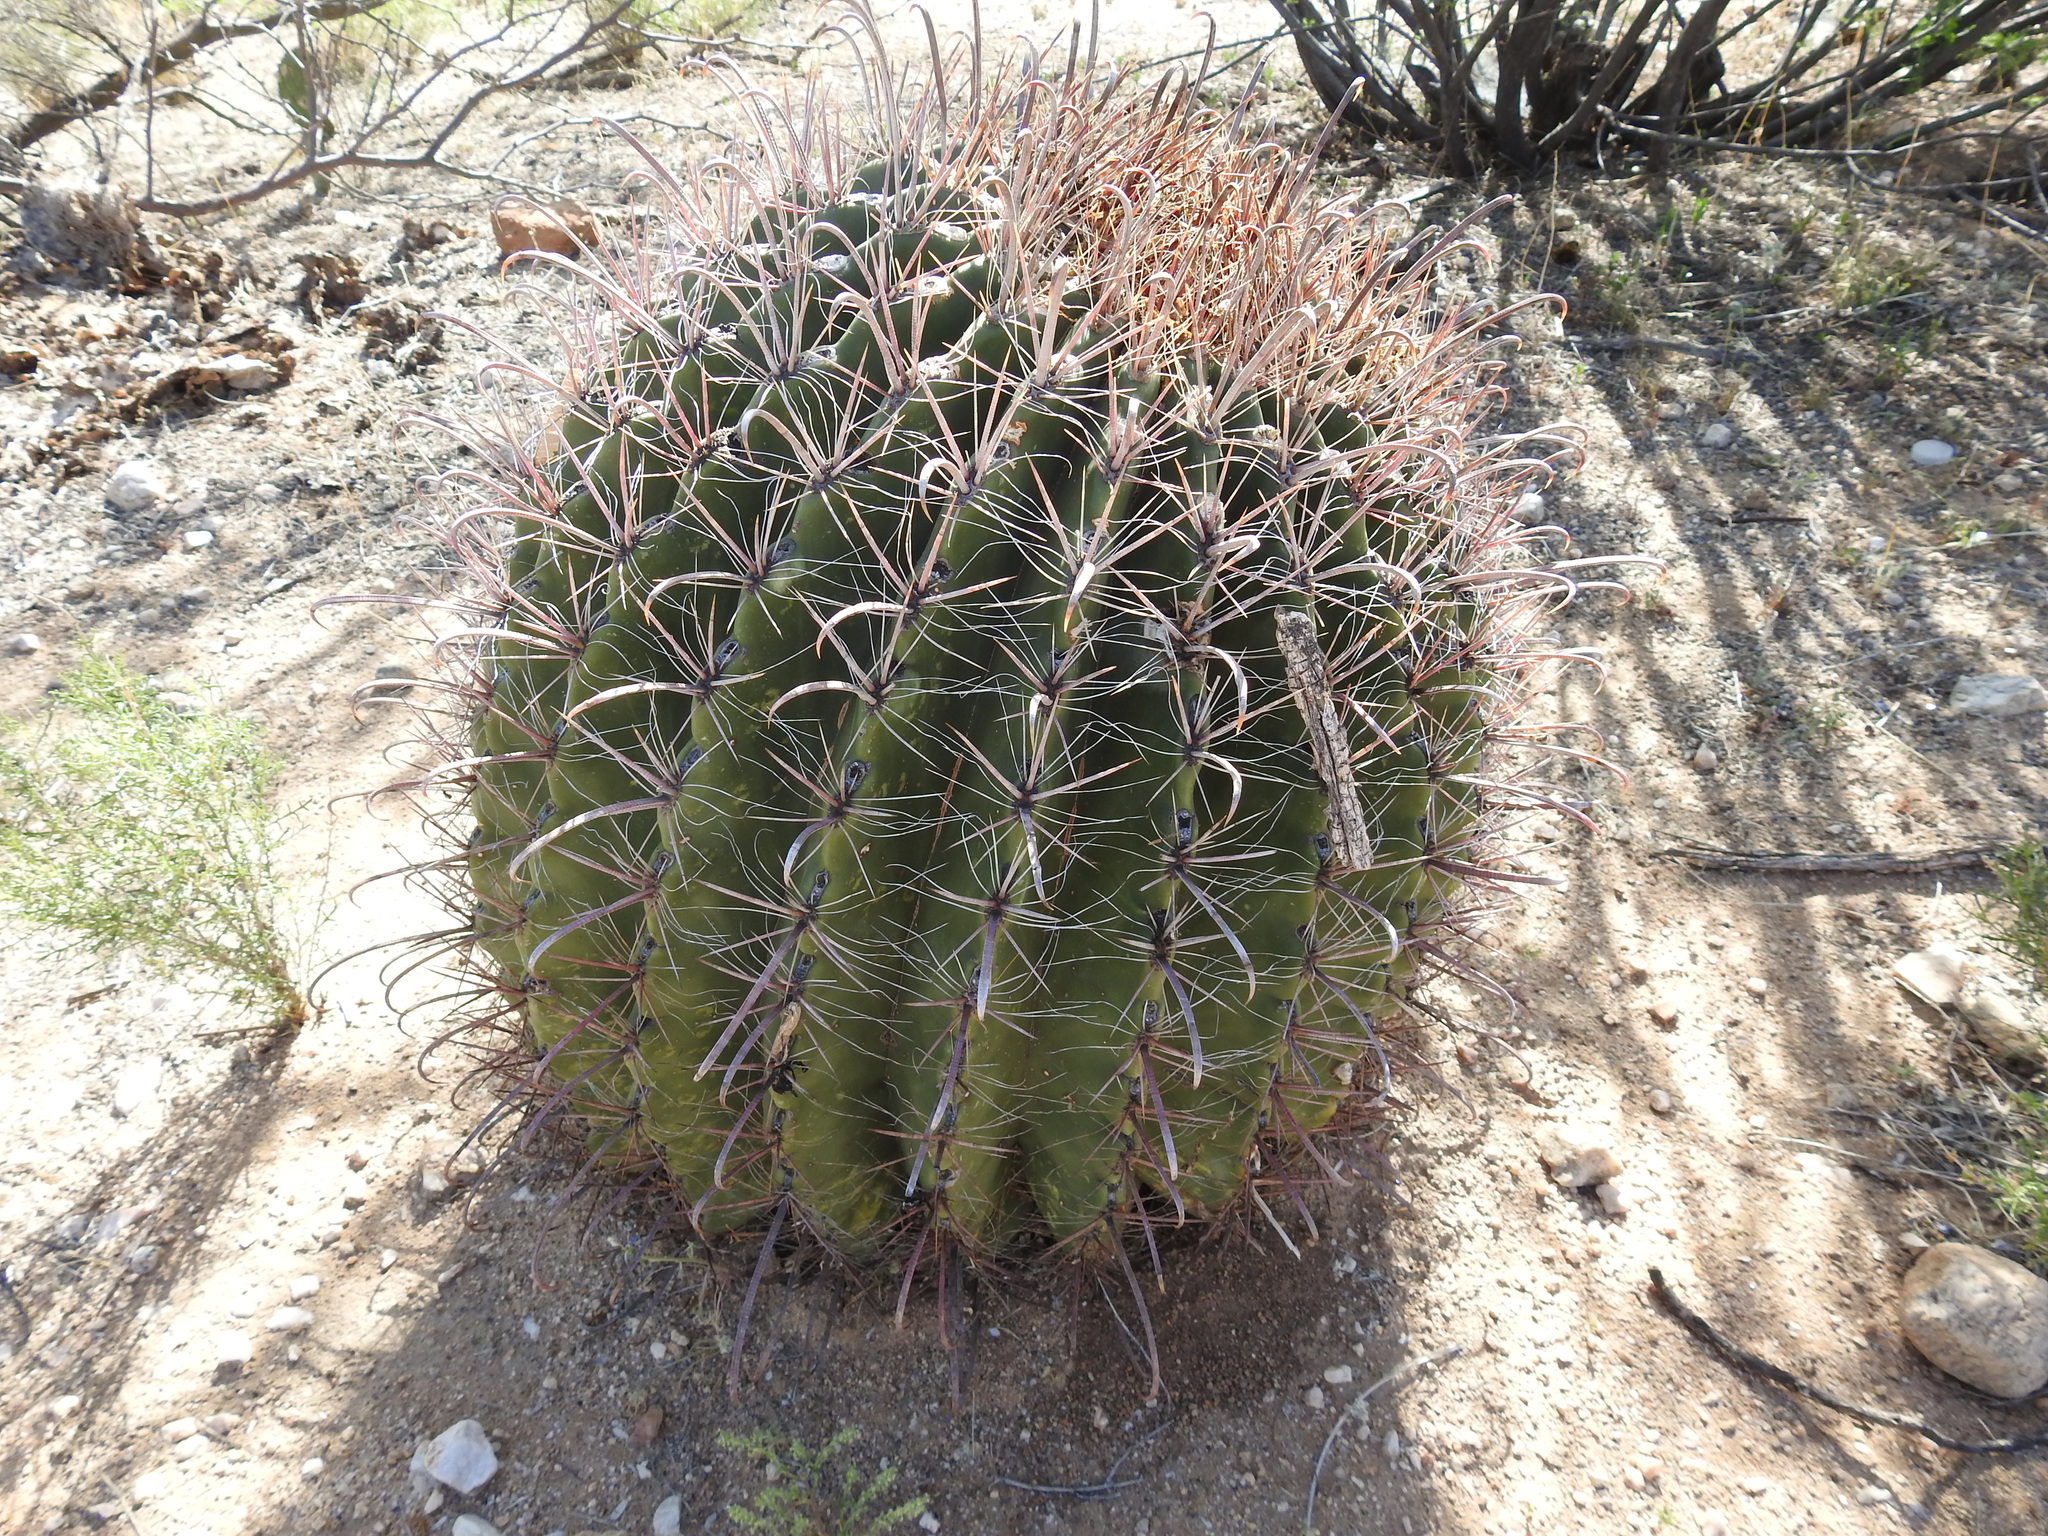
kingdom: Plantae
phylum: Tracheophyta
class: Magnoliopsida
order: Caryophyllales
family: Cactaceae
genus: Ferocactus
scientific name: Ferocactus wislizeni
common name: Candy barrel cactus
